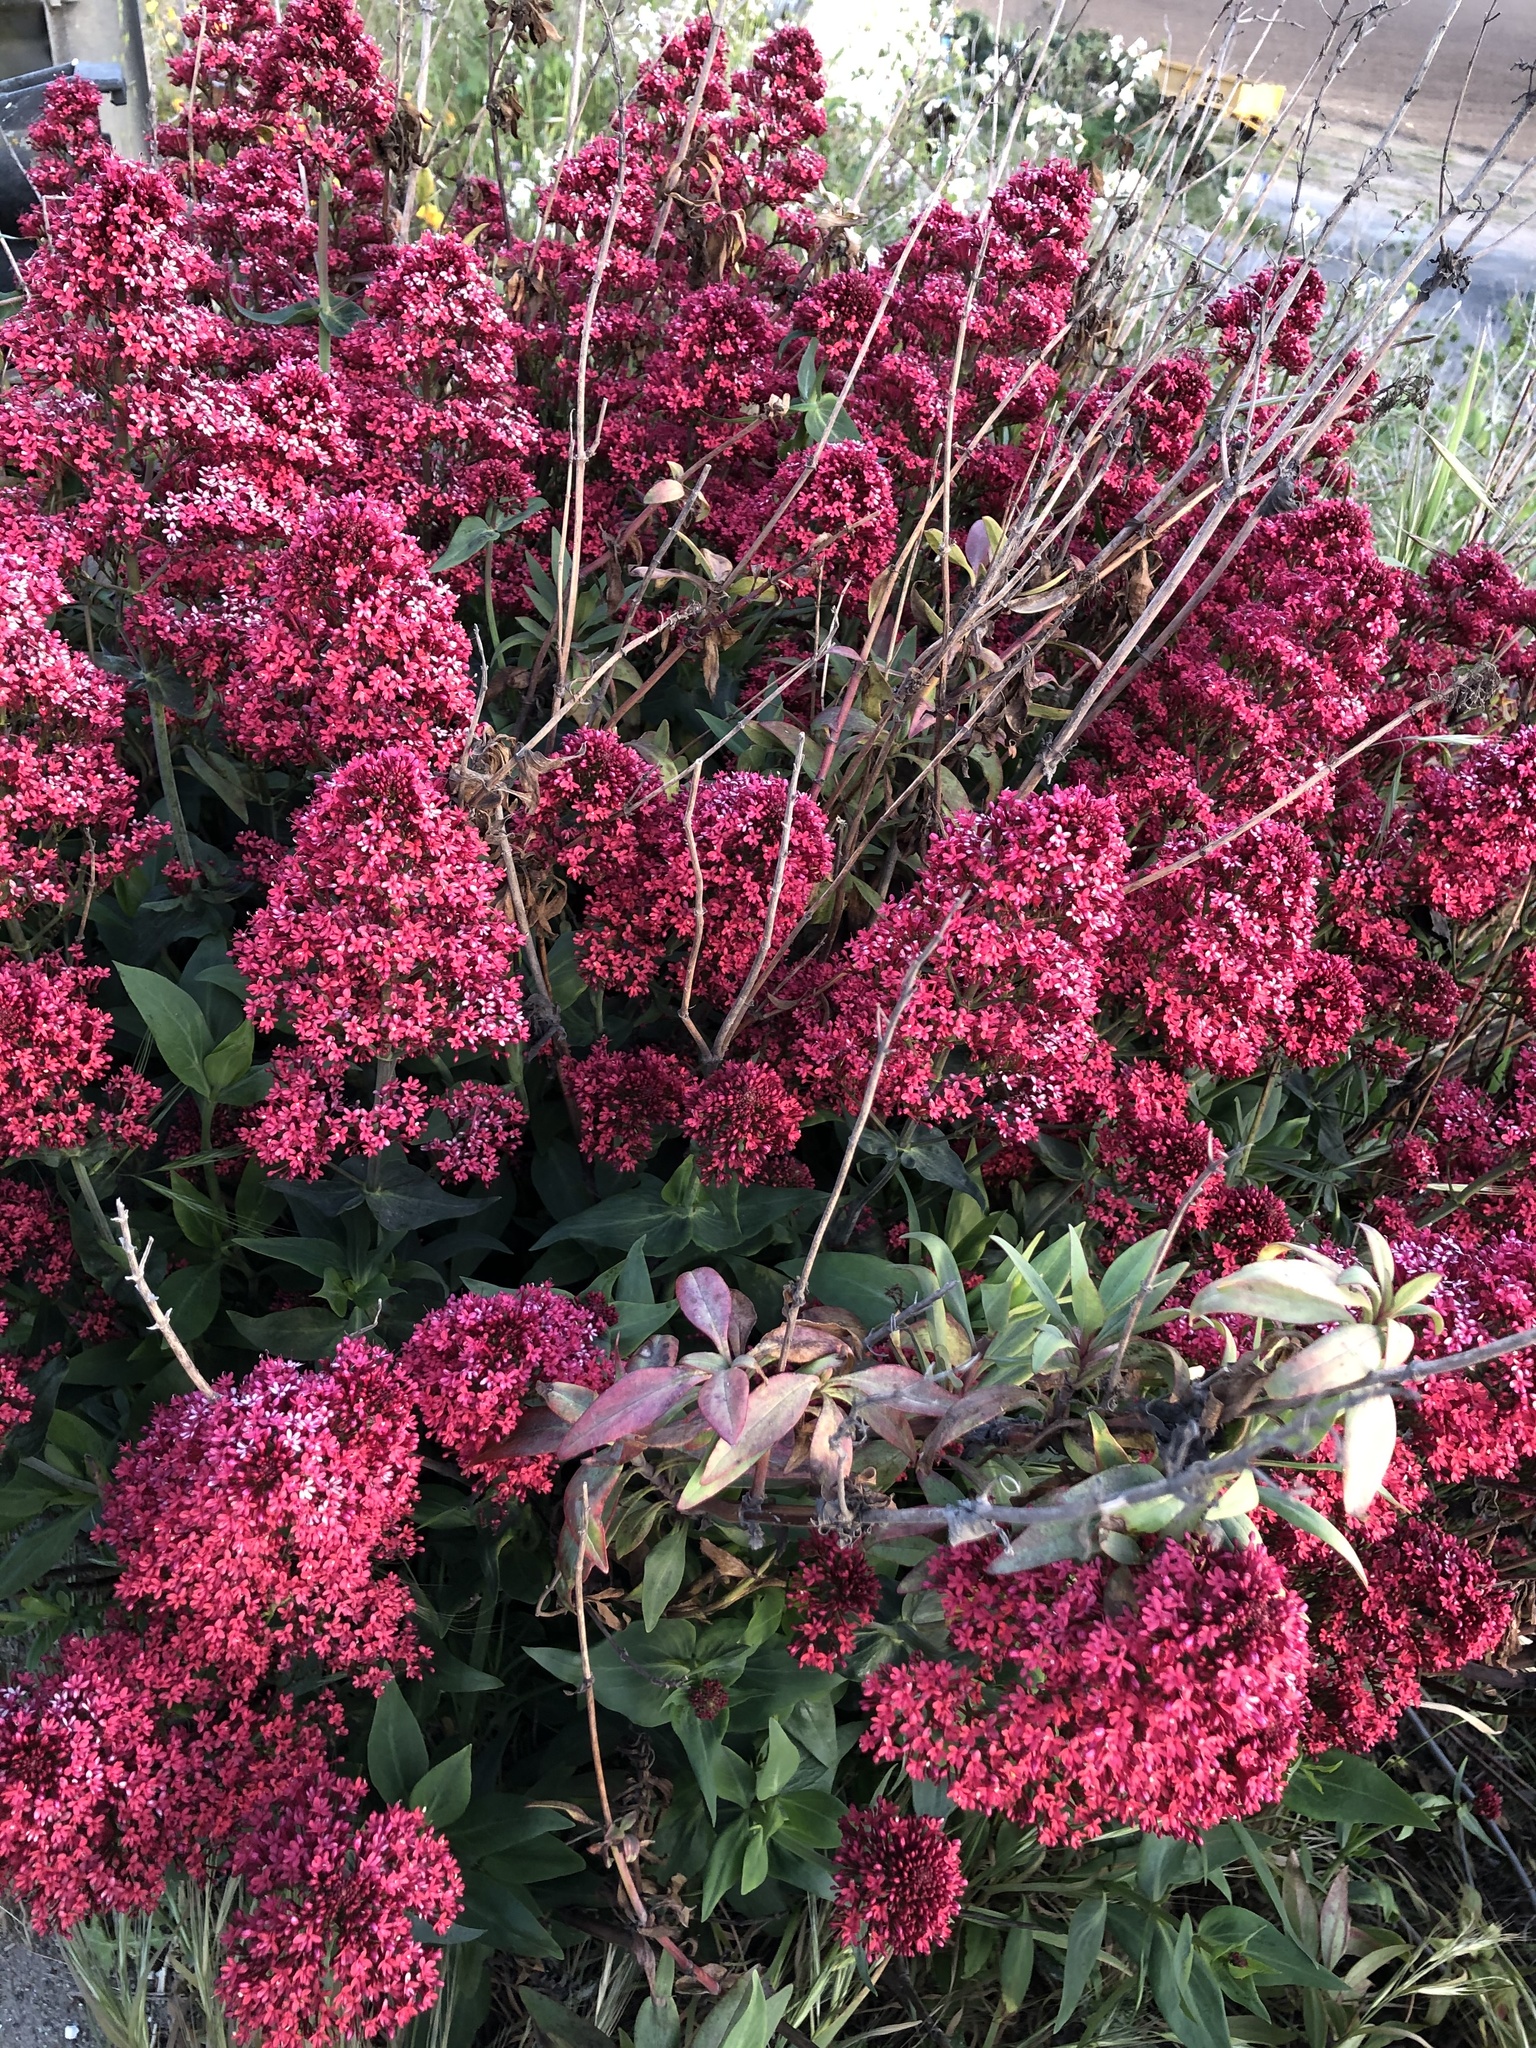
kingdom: Plantae
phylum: Tracheophyta
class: Magnoliopsida
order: Dipsacales
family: Caprifoliaceae
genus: Centranthus
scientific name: Centranthus ruber
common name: Red valerian
